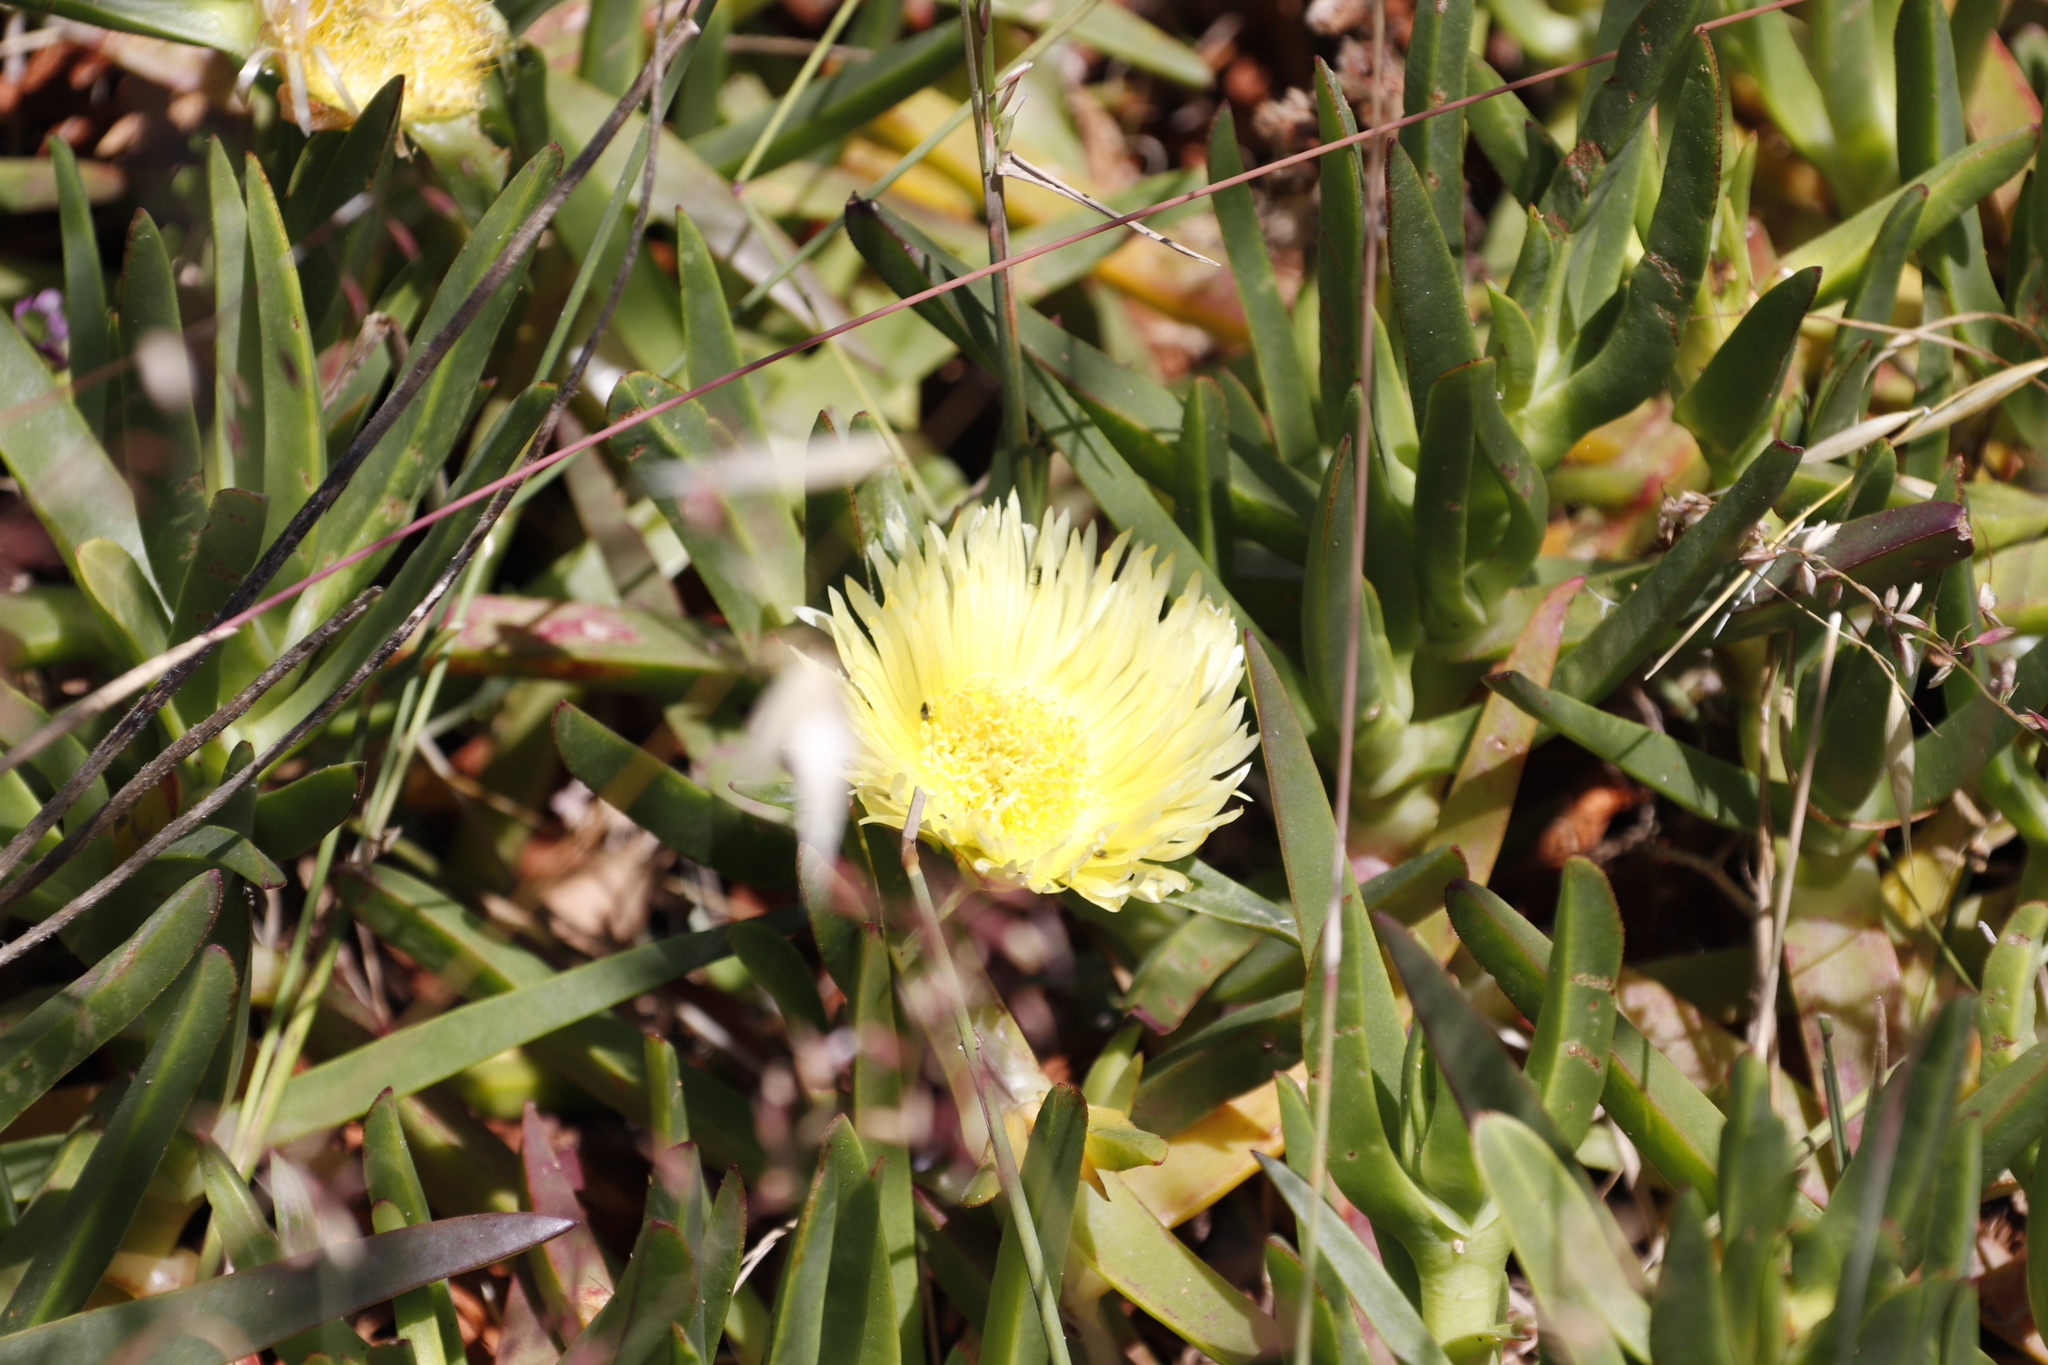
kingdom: Plantae
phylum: Tracheophyta
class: Magnoliopsida
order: Caryophyllales
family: Aizoaceae
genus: Carpobrotus
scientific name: Carpobrotus edulis
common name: Hottentot-fig
